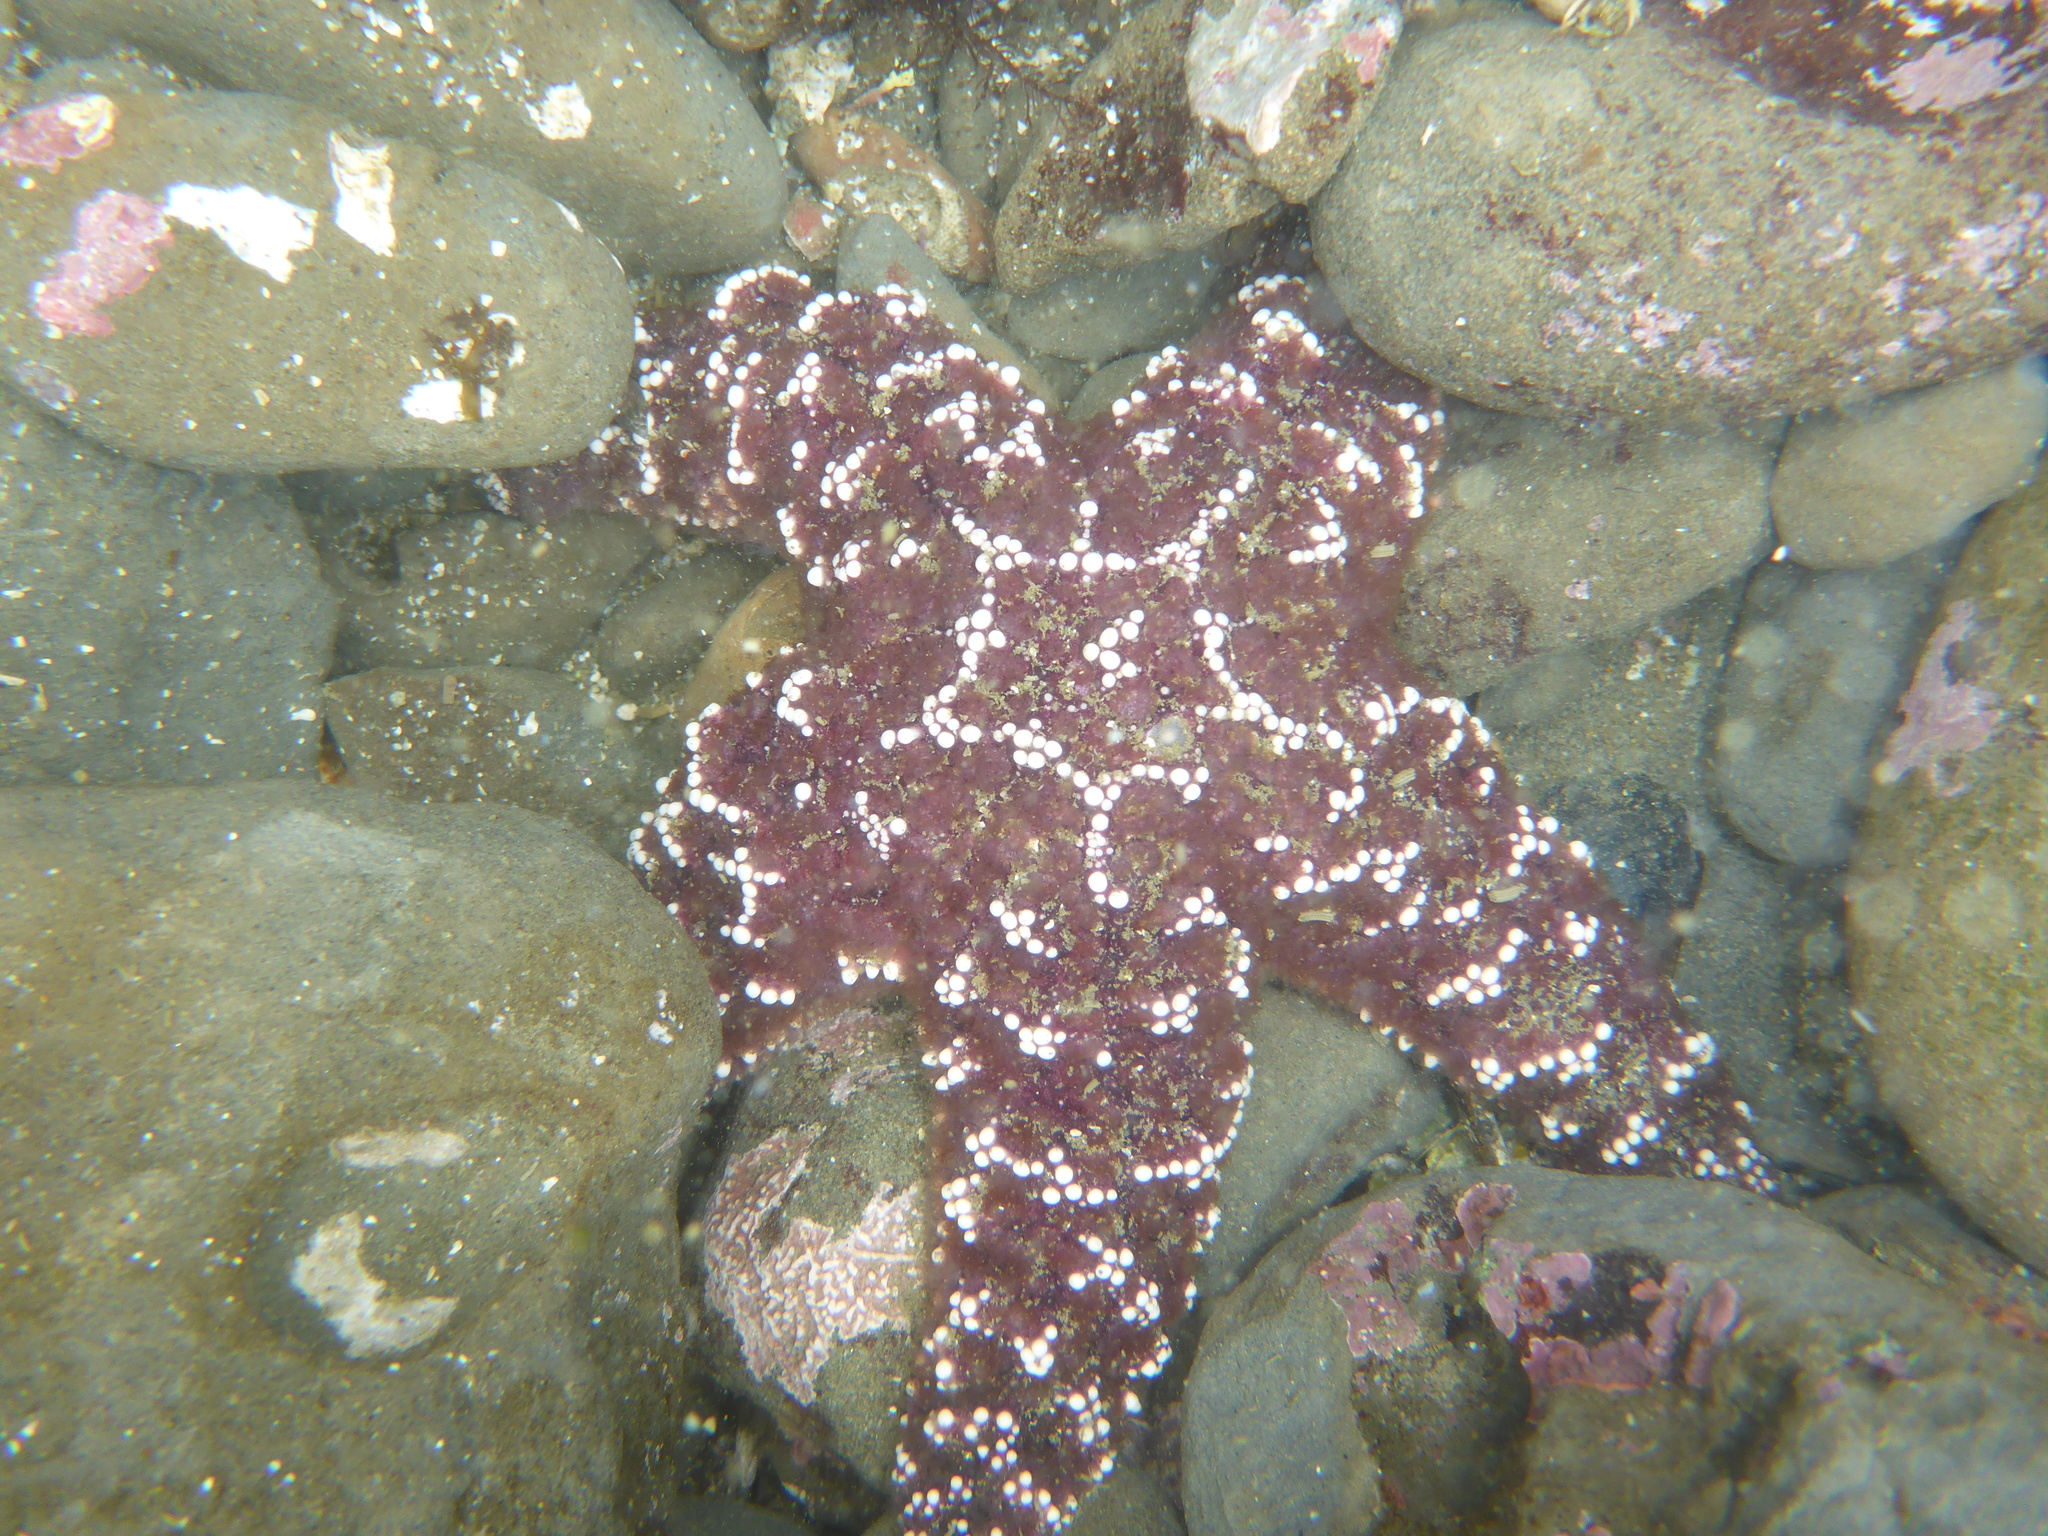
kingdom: Animalia
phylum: Echinodermata
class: Asteroidea
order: Forcipulatida
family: Asteriidae
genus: Pisaster
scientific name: Pisaster ochraceus
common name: Ochre stars
